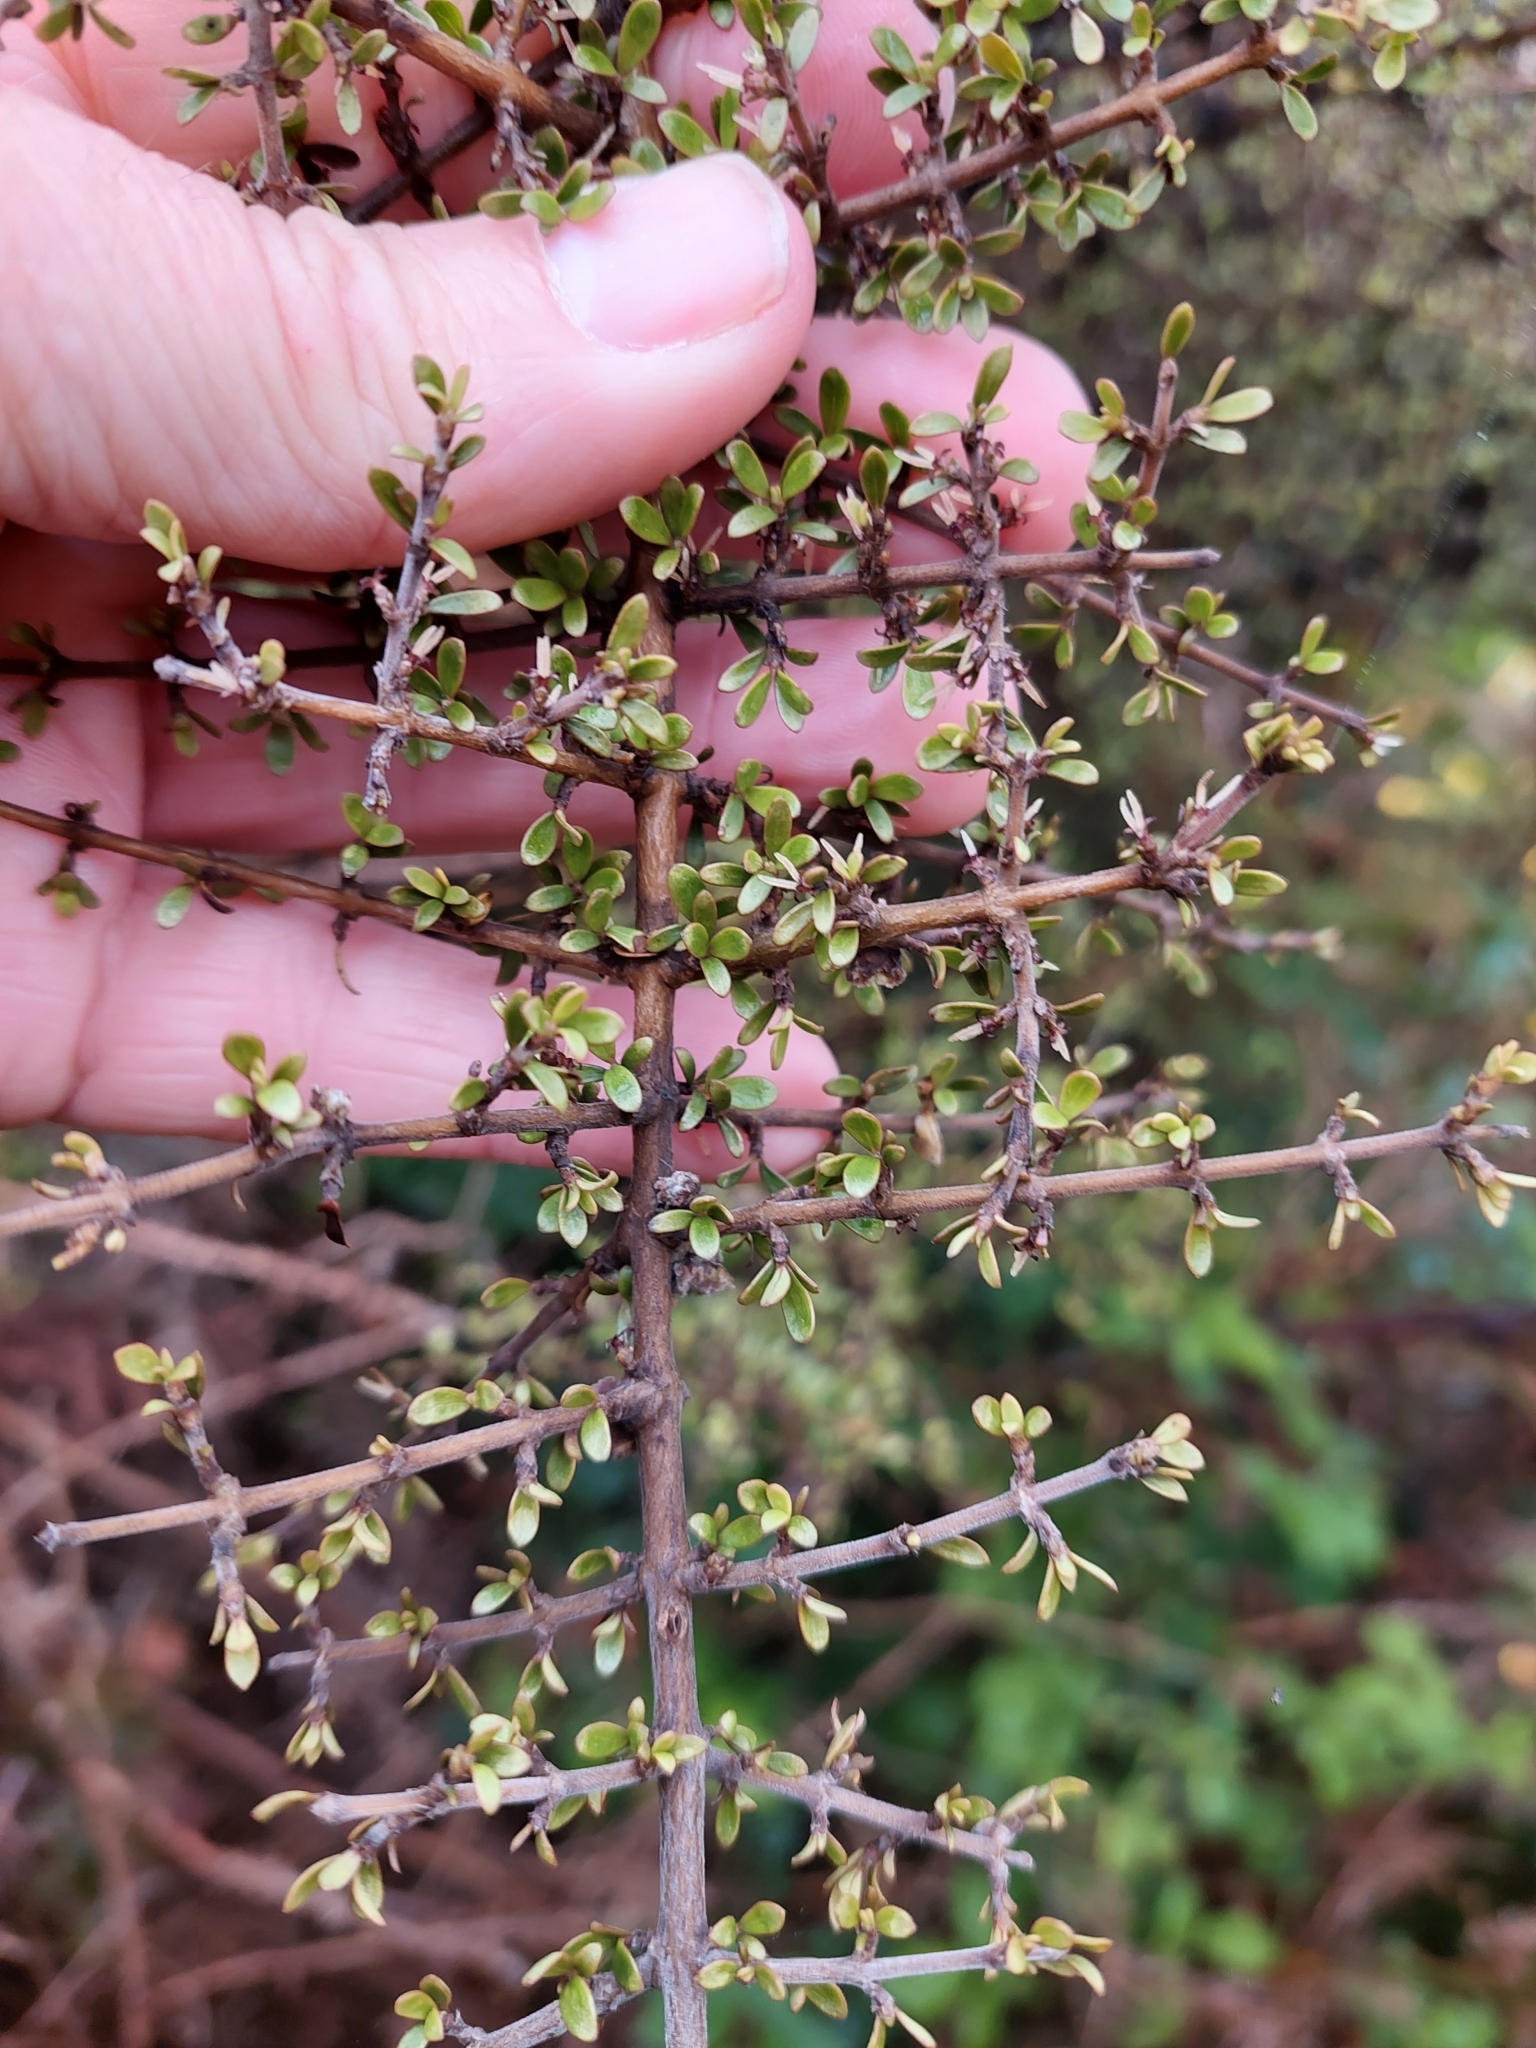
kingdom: Plantae
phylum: Tracheophyta
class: Magnoliopsida
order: Gentianales
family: Rubiaceae
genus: Coprosma
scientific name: Coprosma dumosa
